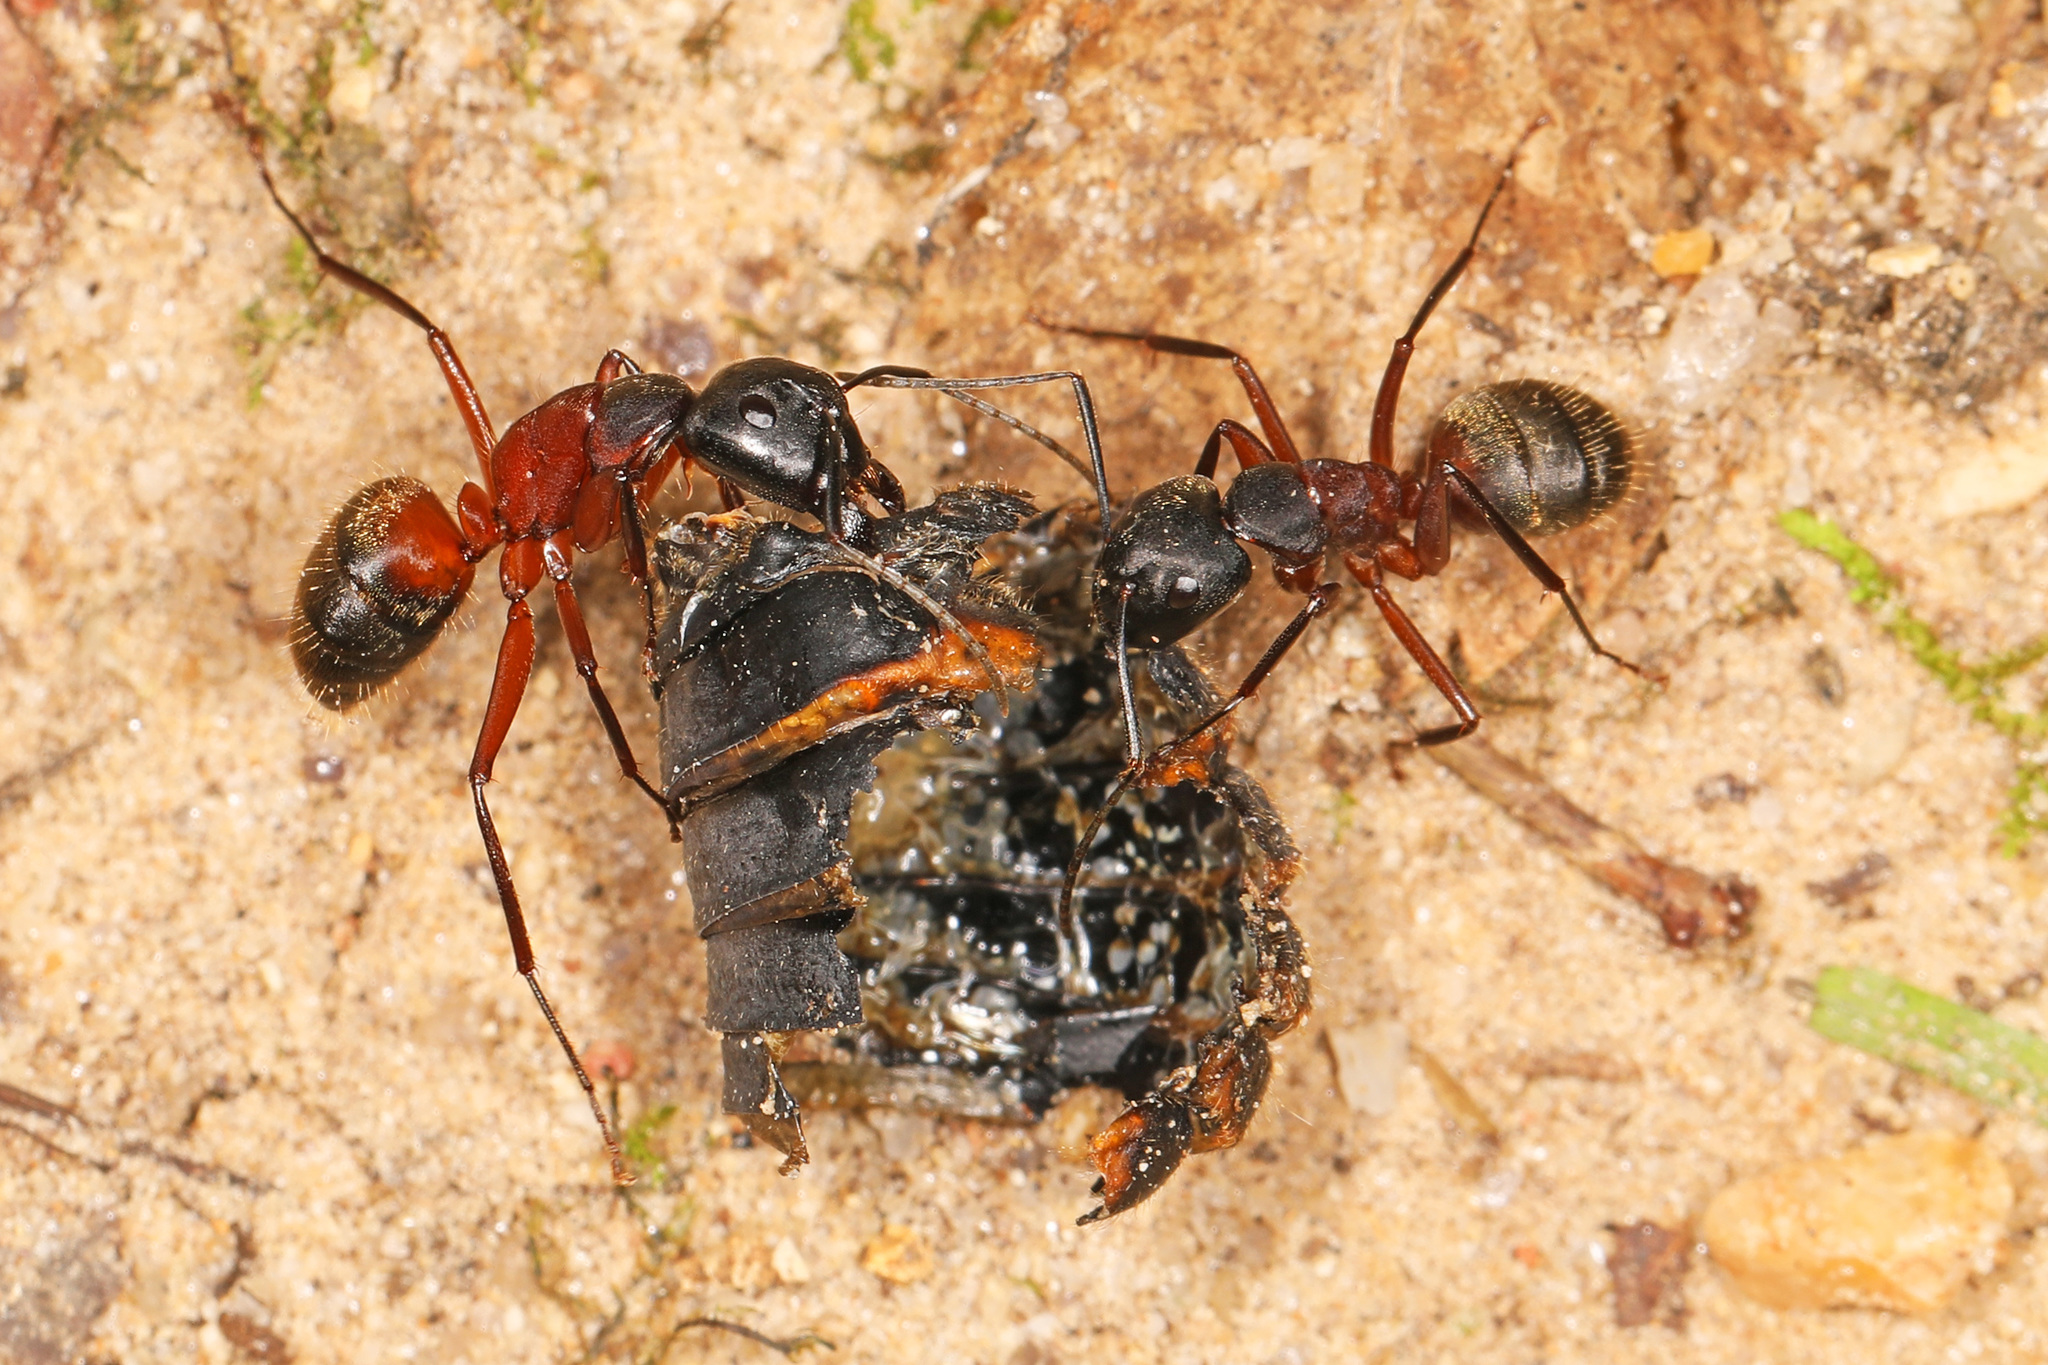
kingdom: Animalia
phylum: Arthropoda
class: Insecta
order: Hymenoptera
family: Formicidae
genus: Camponotus
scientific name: Camponotus chromaiodes
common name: Red carpenter ant
